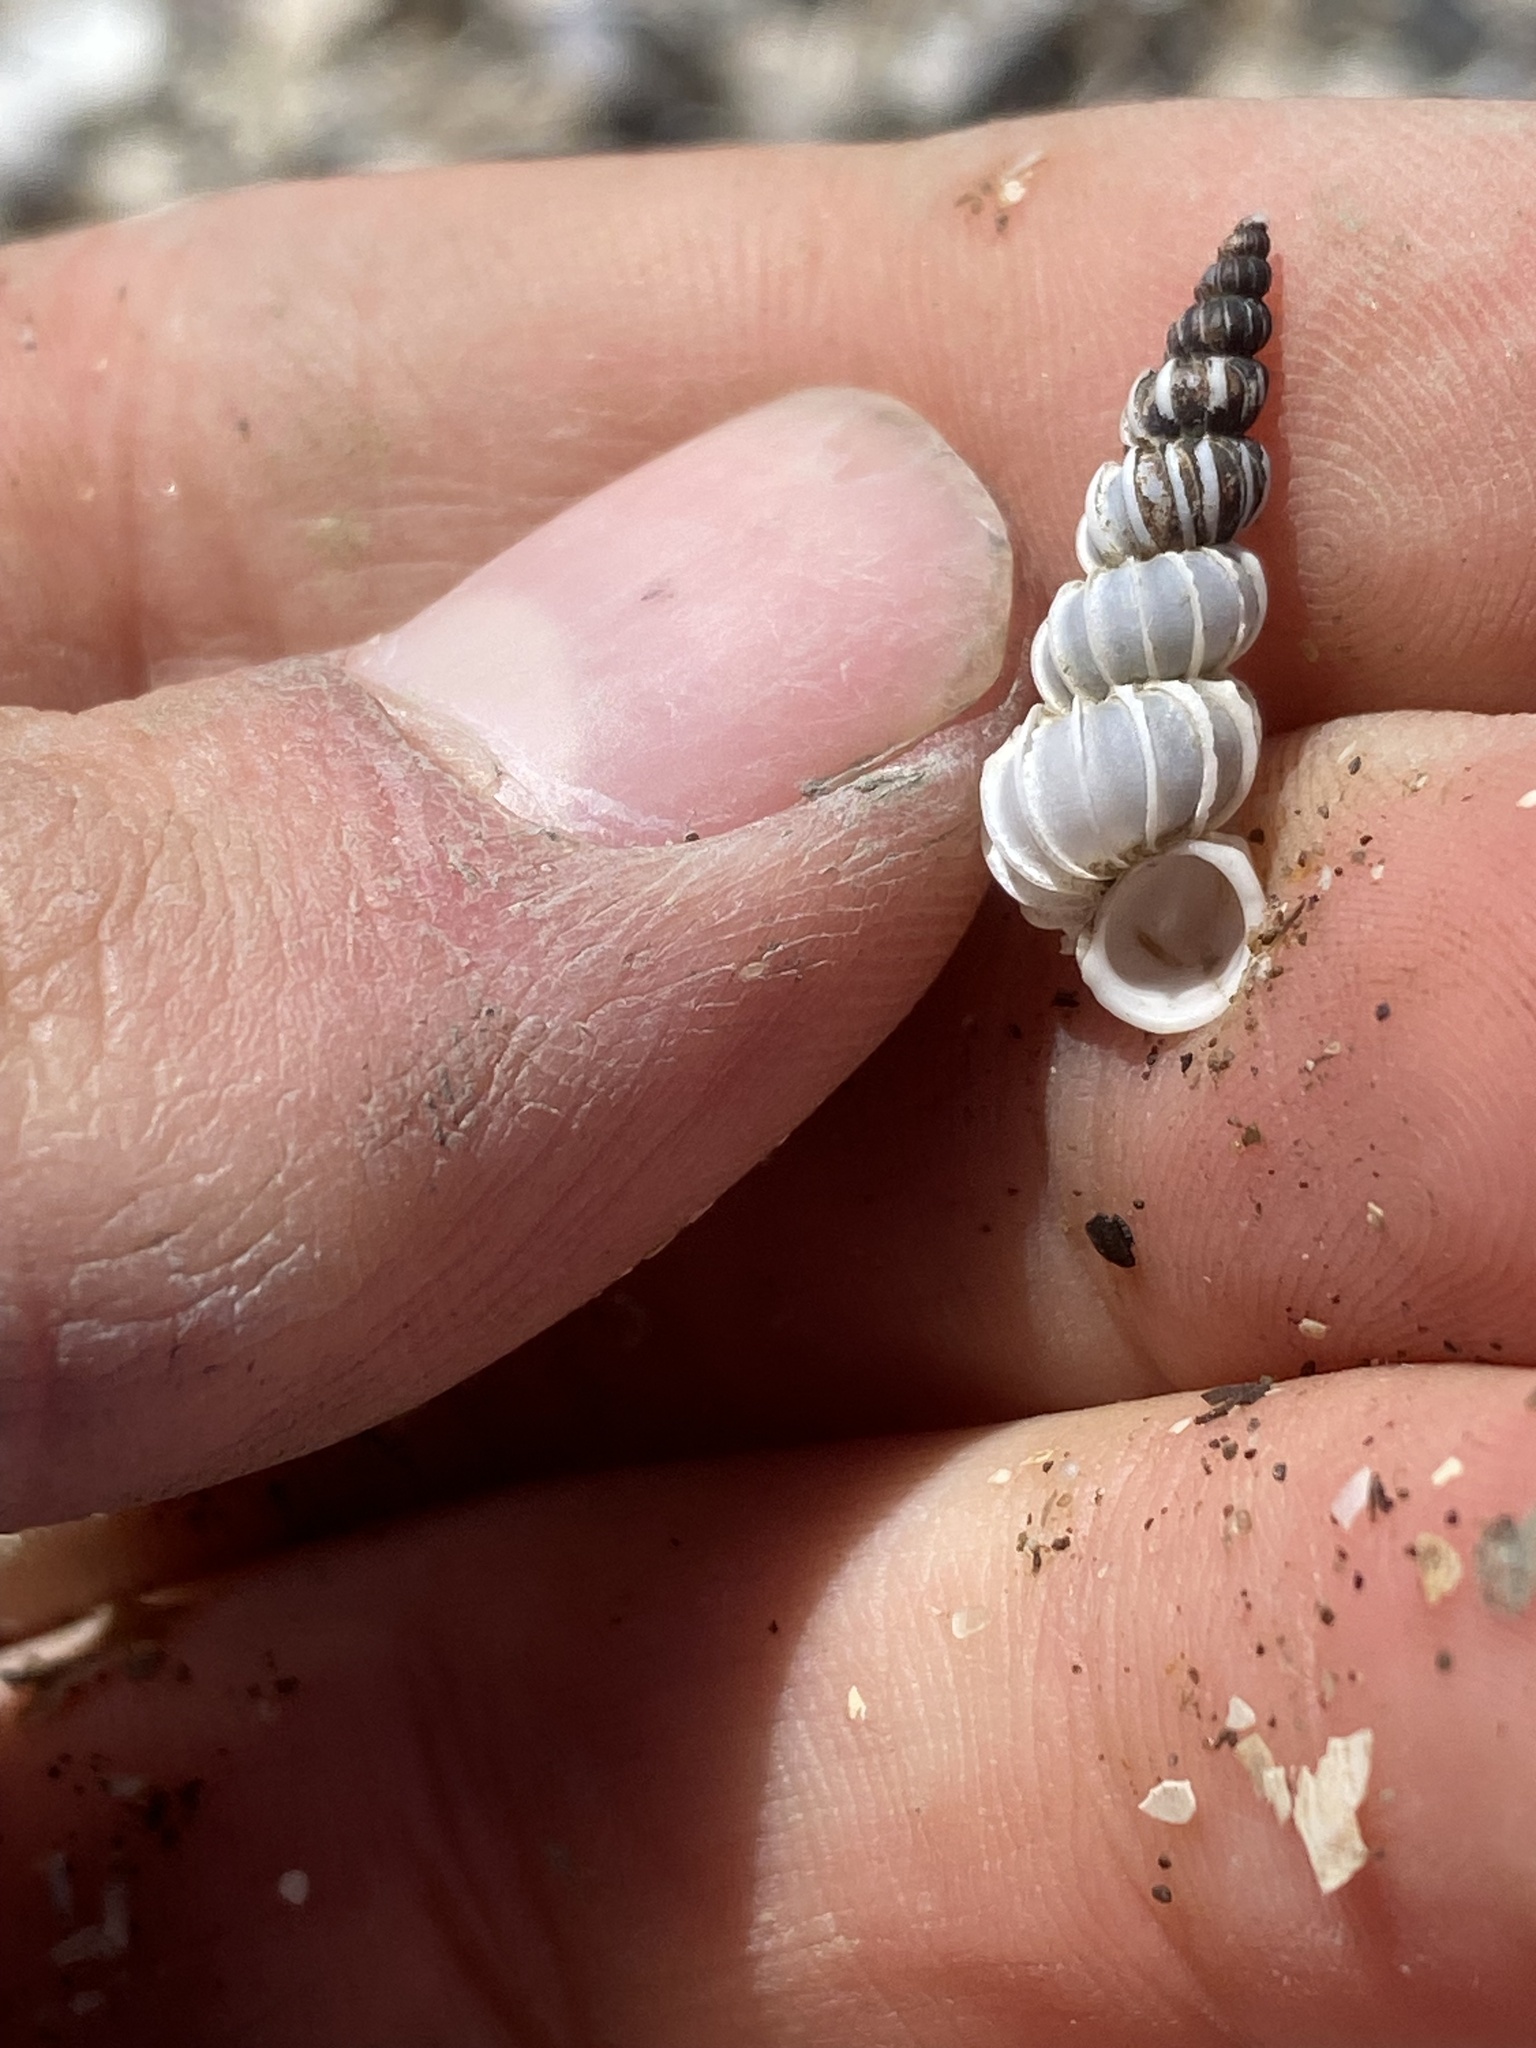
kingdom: Animalia
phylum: Mollusca
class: Gastropoda
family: Epitoniidae
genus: Epitonium
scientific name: Epitonium tinctum
